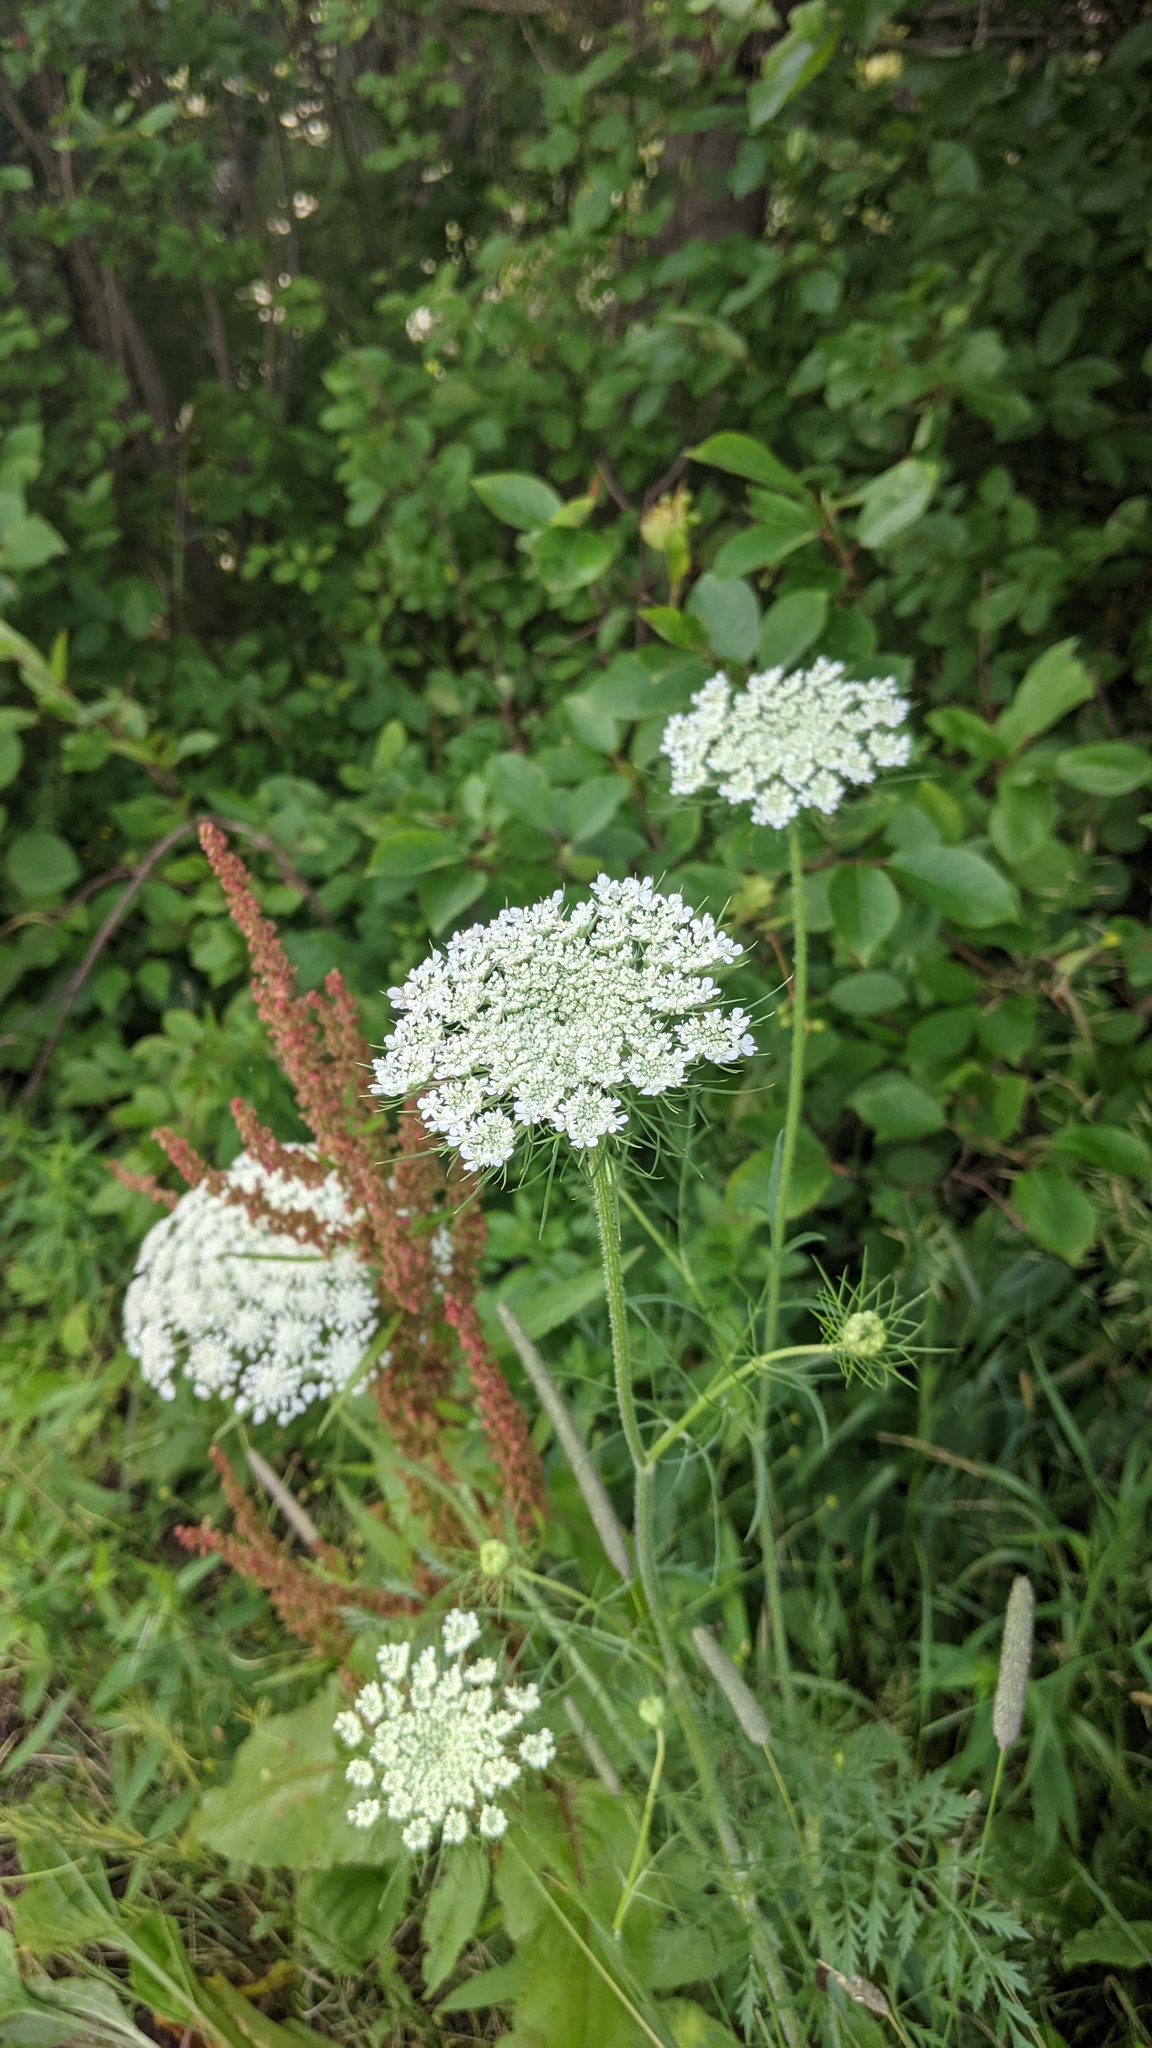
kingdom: Plantae
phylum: Tracheophyta
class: Magnoliopsida
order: Apiales
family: Apiaceae
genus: Daucus
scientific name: Daucus carota
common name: Wild carrot
